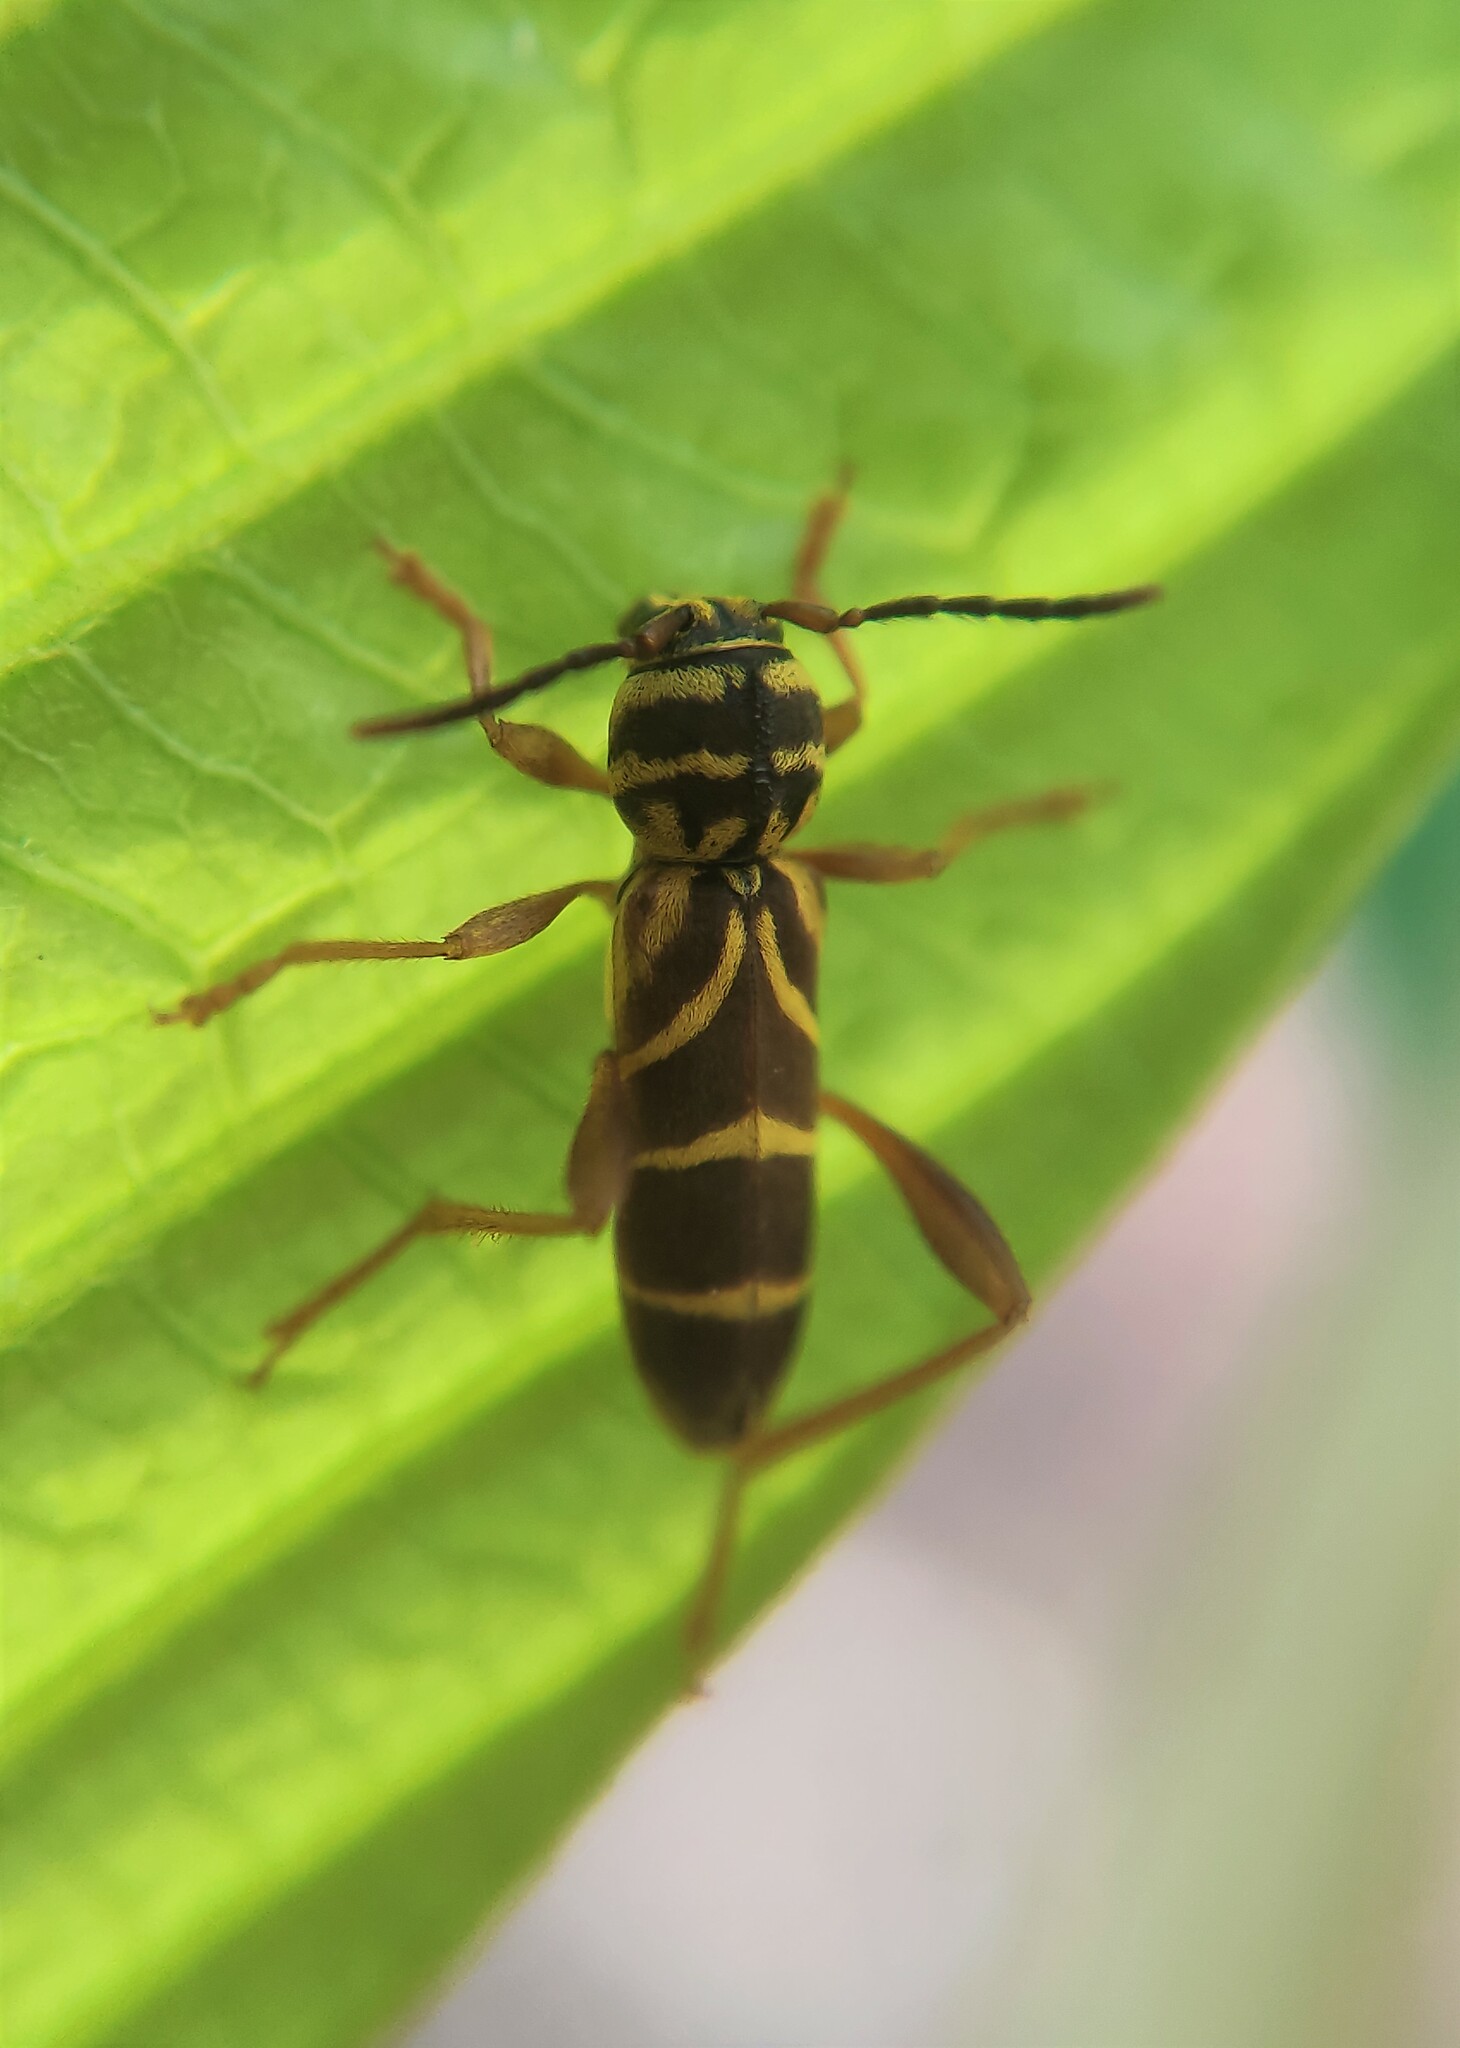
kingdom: Animalia
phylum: Arthropoda
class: Insecta
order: Coleoptera
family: Cerambycidae
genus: Unaiuba
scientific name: Unaiuba bruchi
